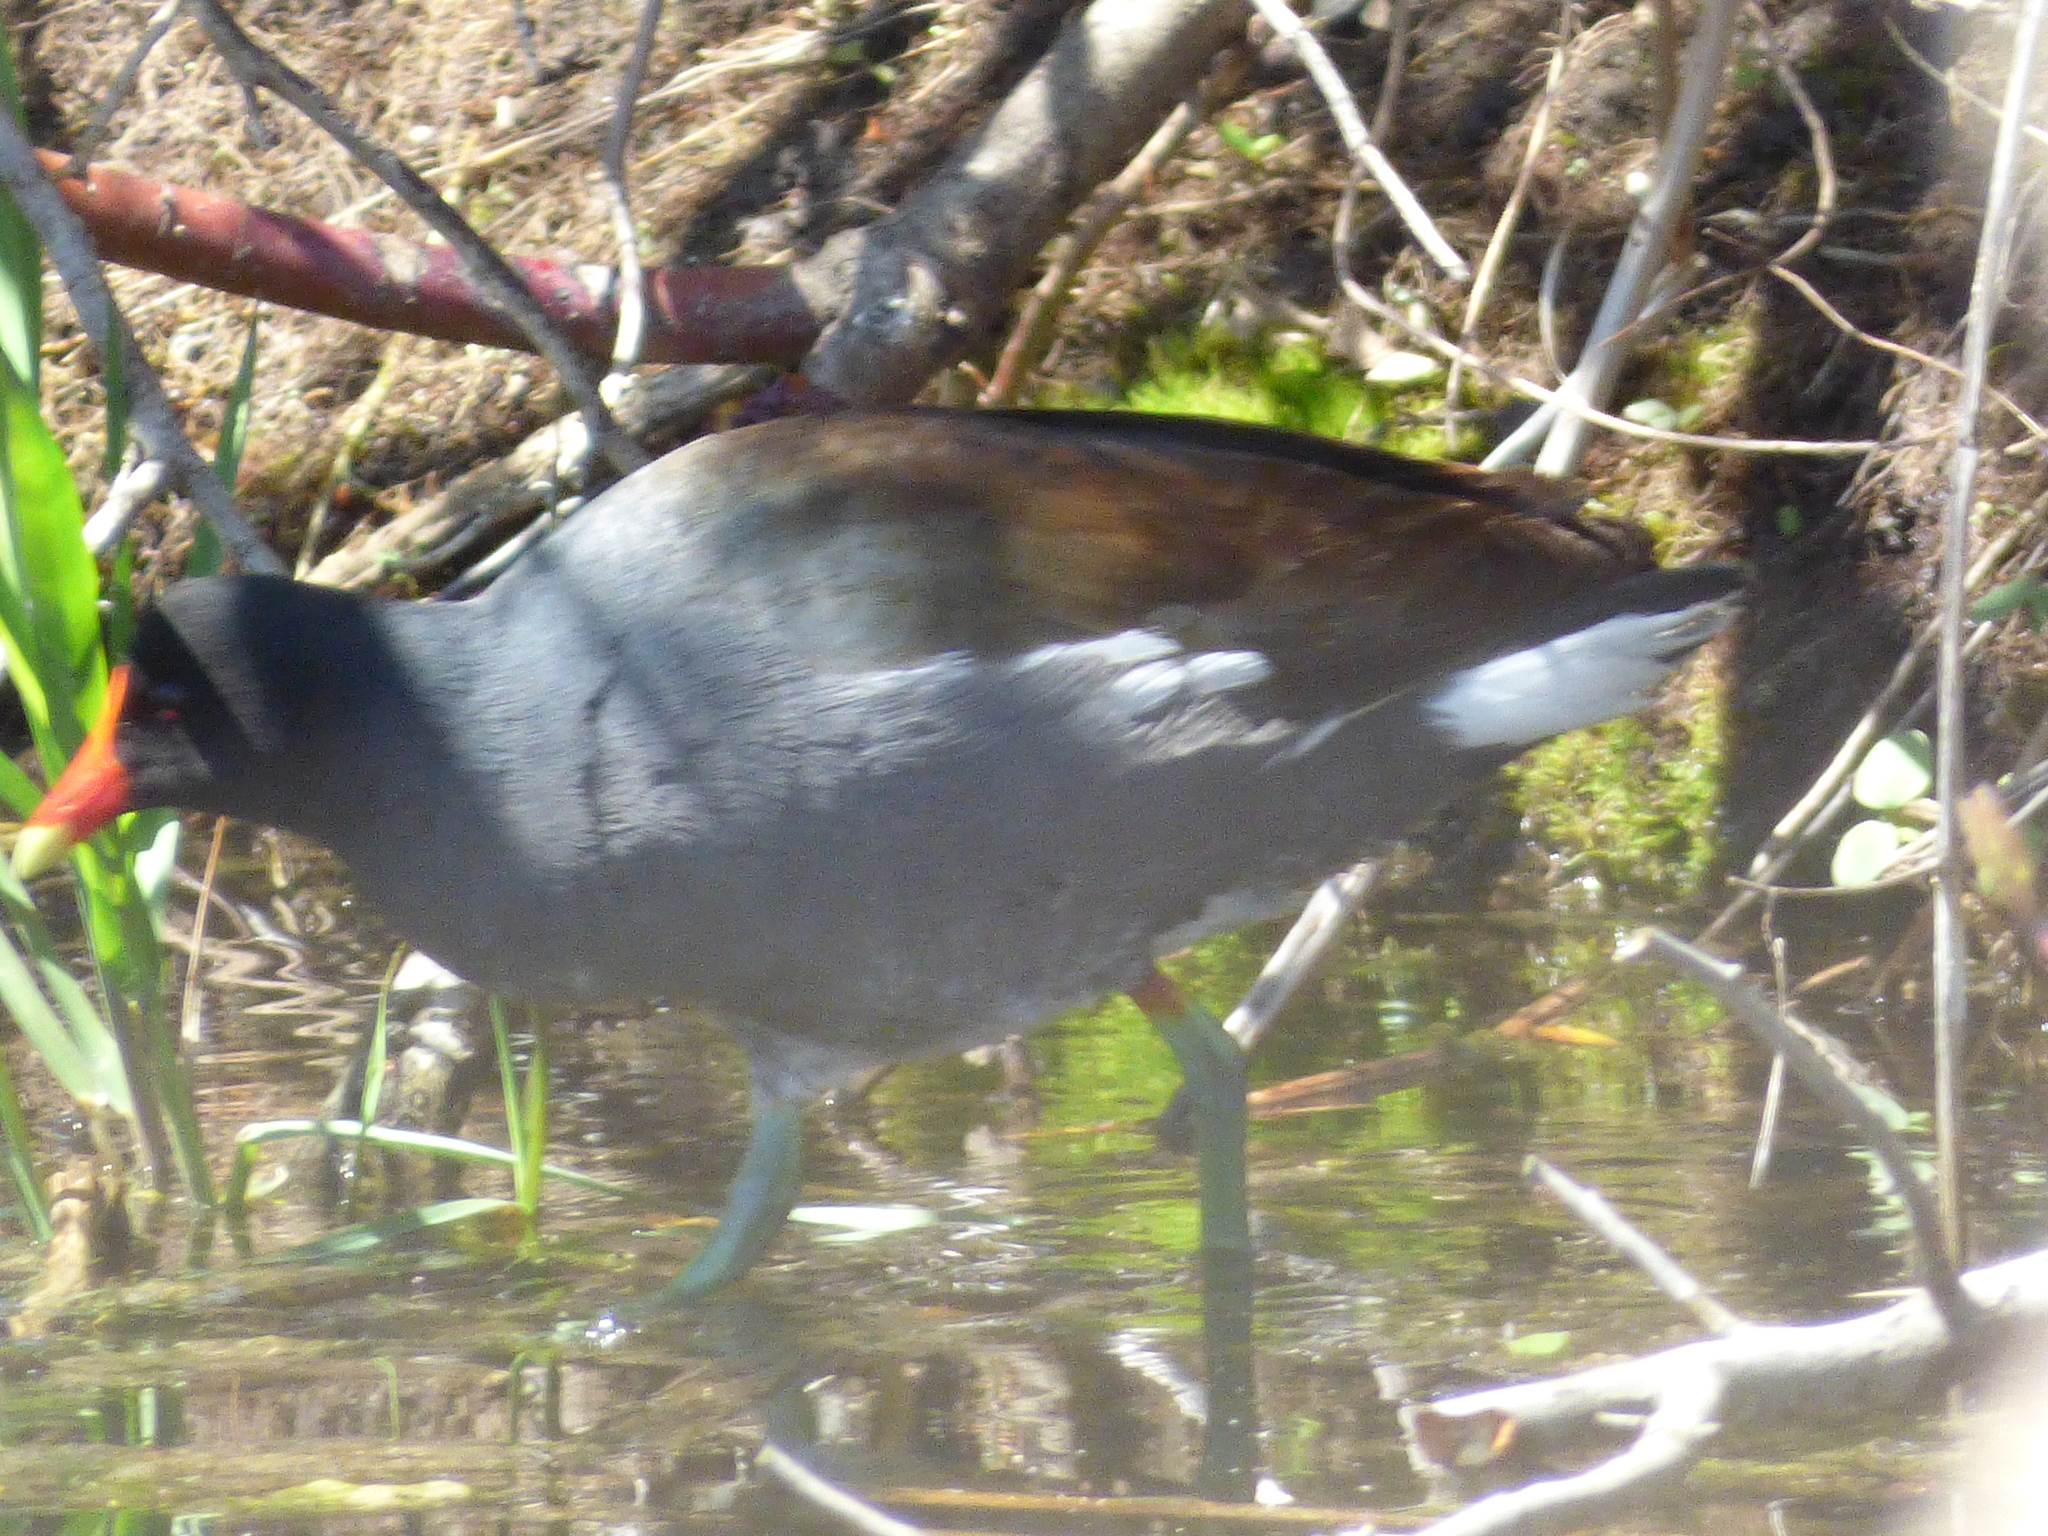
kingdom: Animalia
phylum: Chordata
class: Aves
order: Gruiformes
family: Rallidae
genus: Gallinula
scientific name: Gallinula chloropus
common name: Common moorhen
